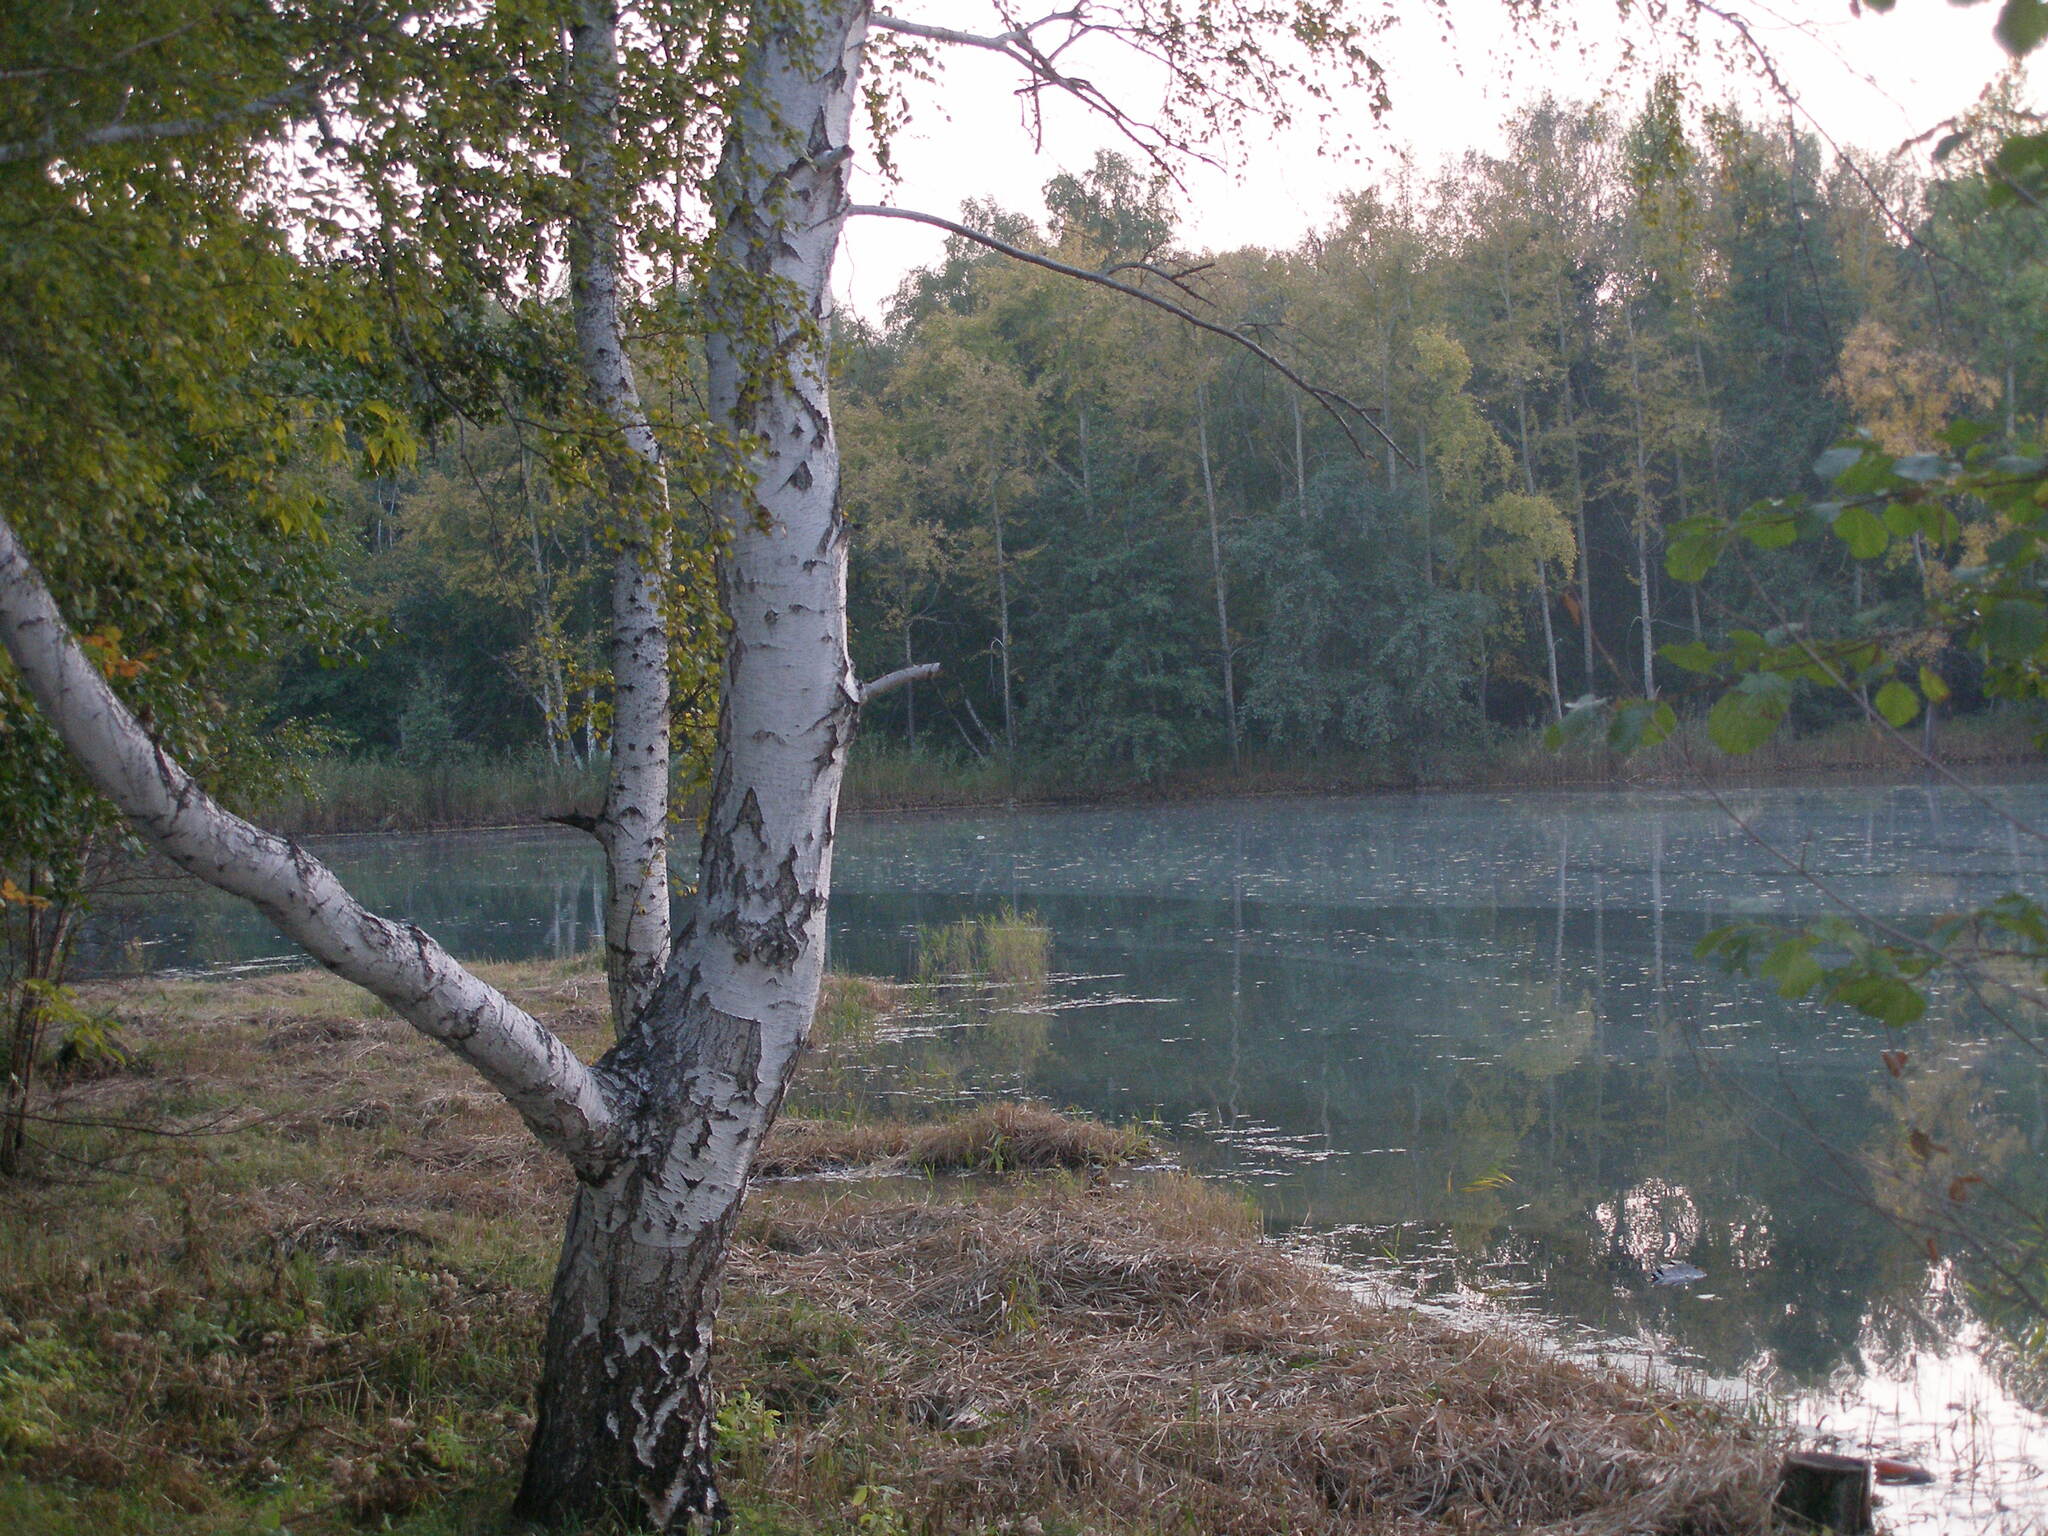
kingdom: Plantae
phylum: Tracheophyta
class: Magnoliopsida
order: Fagales
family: Betulaceae
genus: Betula
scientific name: Betula pendula
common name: Silver birch
